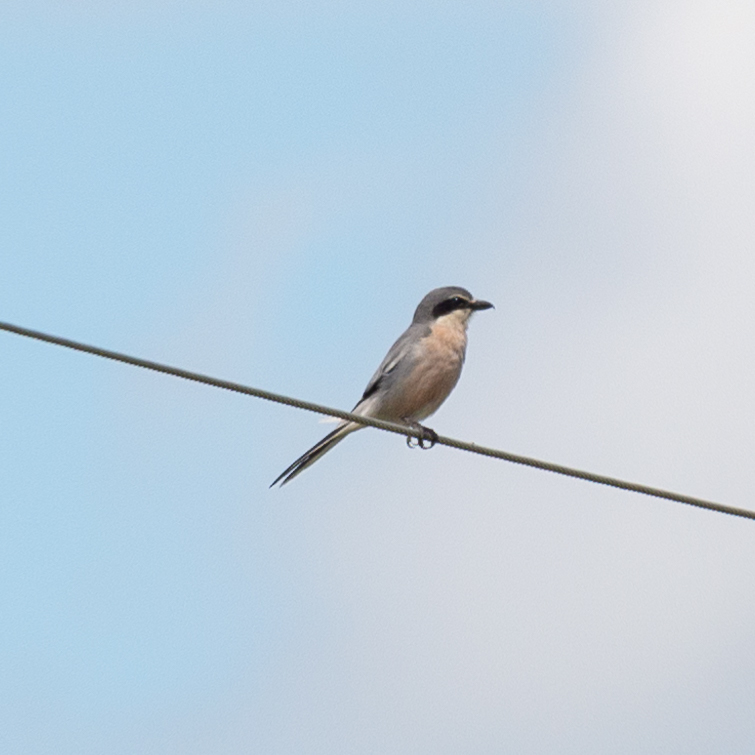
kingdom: Animalia
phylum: Chordata
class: Aves
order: Passeriformes
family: Laniidae
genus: Lanius
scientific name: Lanius meridionalis
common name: Iberian grey shrike
